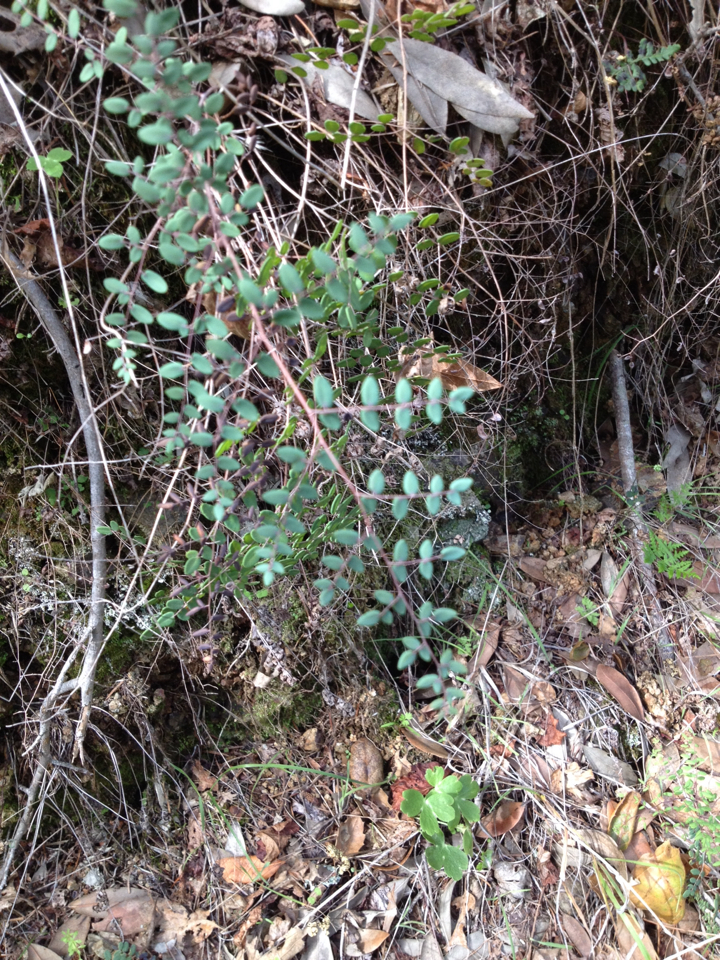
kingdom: Plantae
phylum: Tracheophyta
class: Polypodiopsida
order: Polypodiales
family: Pteridaceae
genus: Pellaea
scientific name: Pellaea andromedifolia
